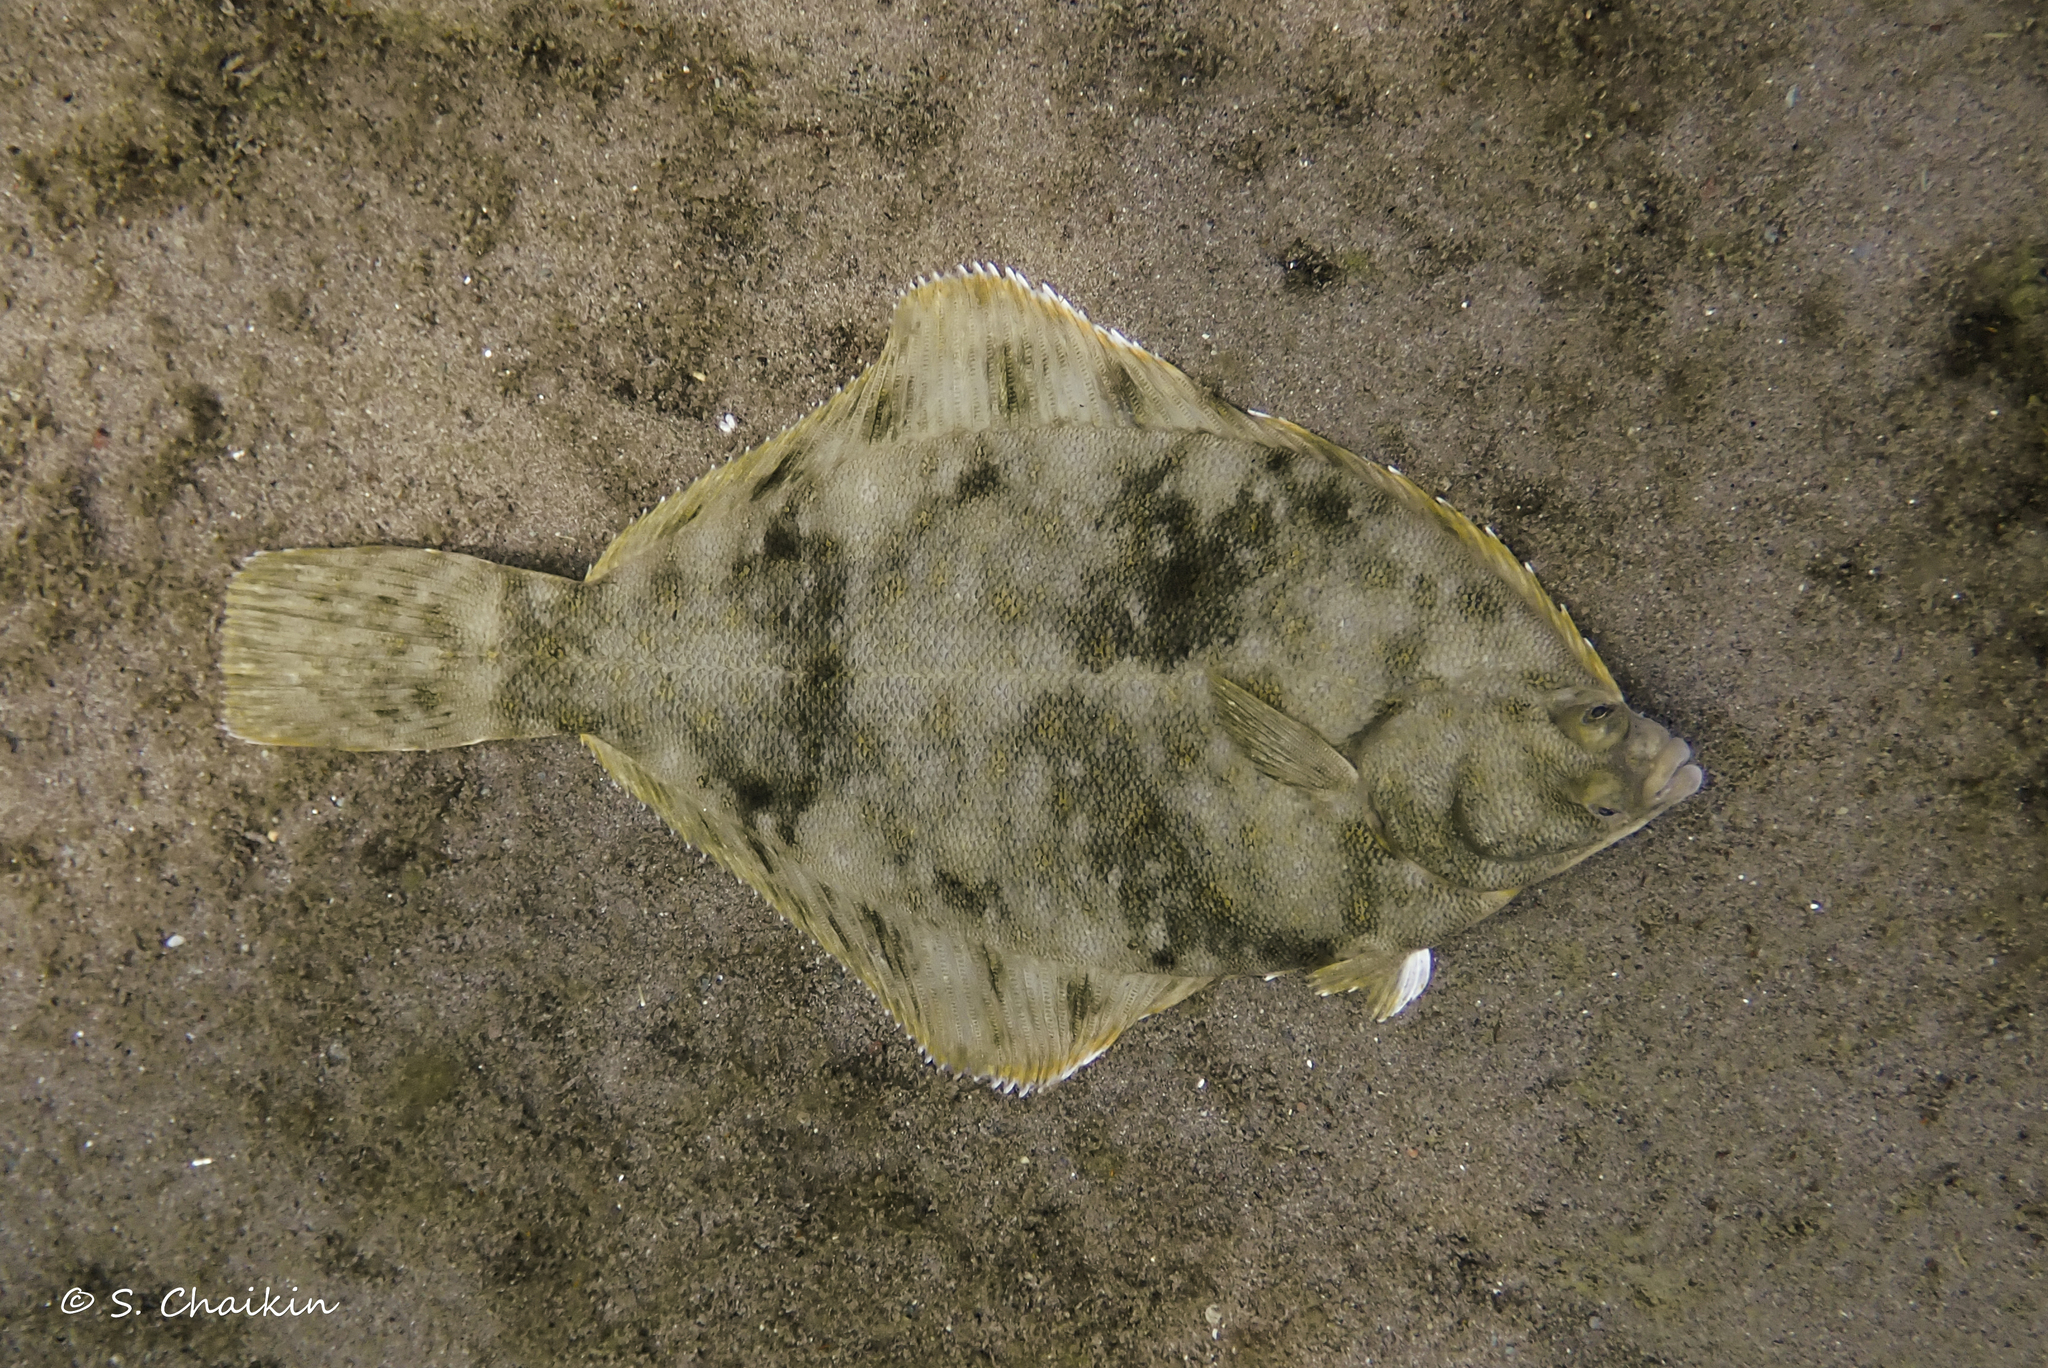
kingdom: Animalia
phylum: Chordata
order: Pleuronectiformes
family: Pleuronectidae
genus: Pseudopleuronectes
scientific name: Pseudopleuronectes americanus
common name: Black backs
